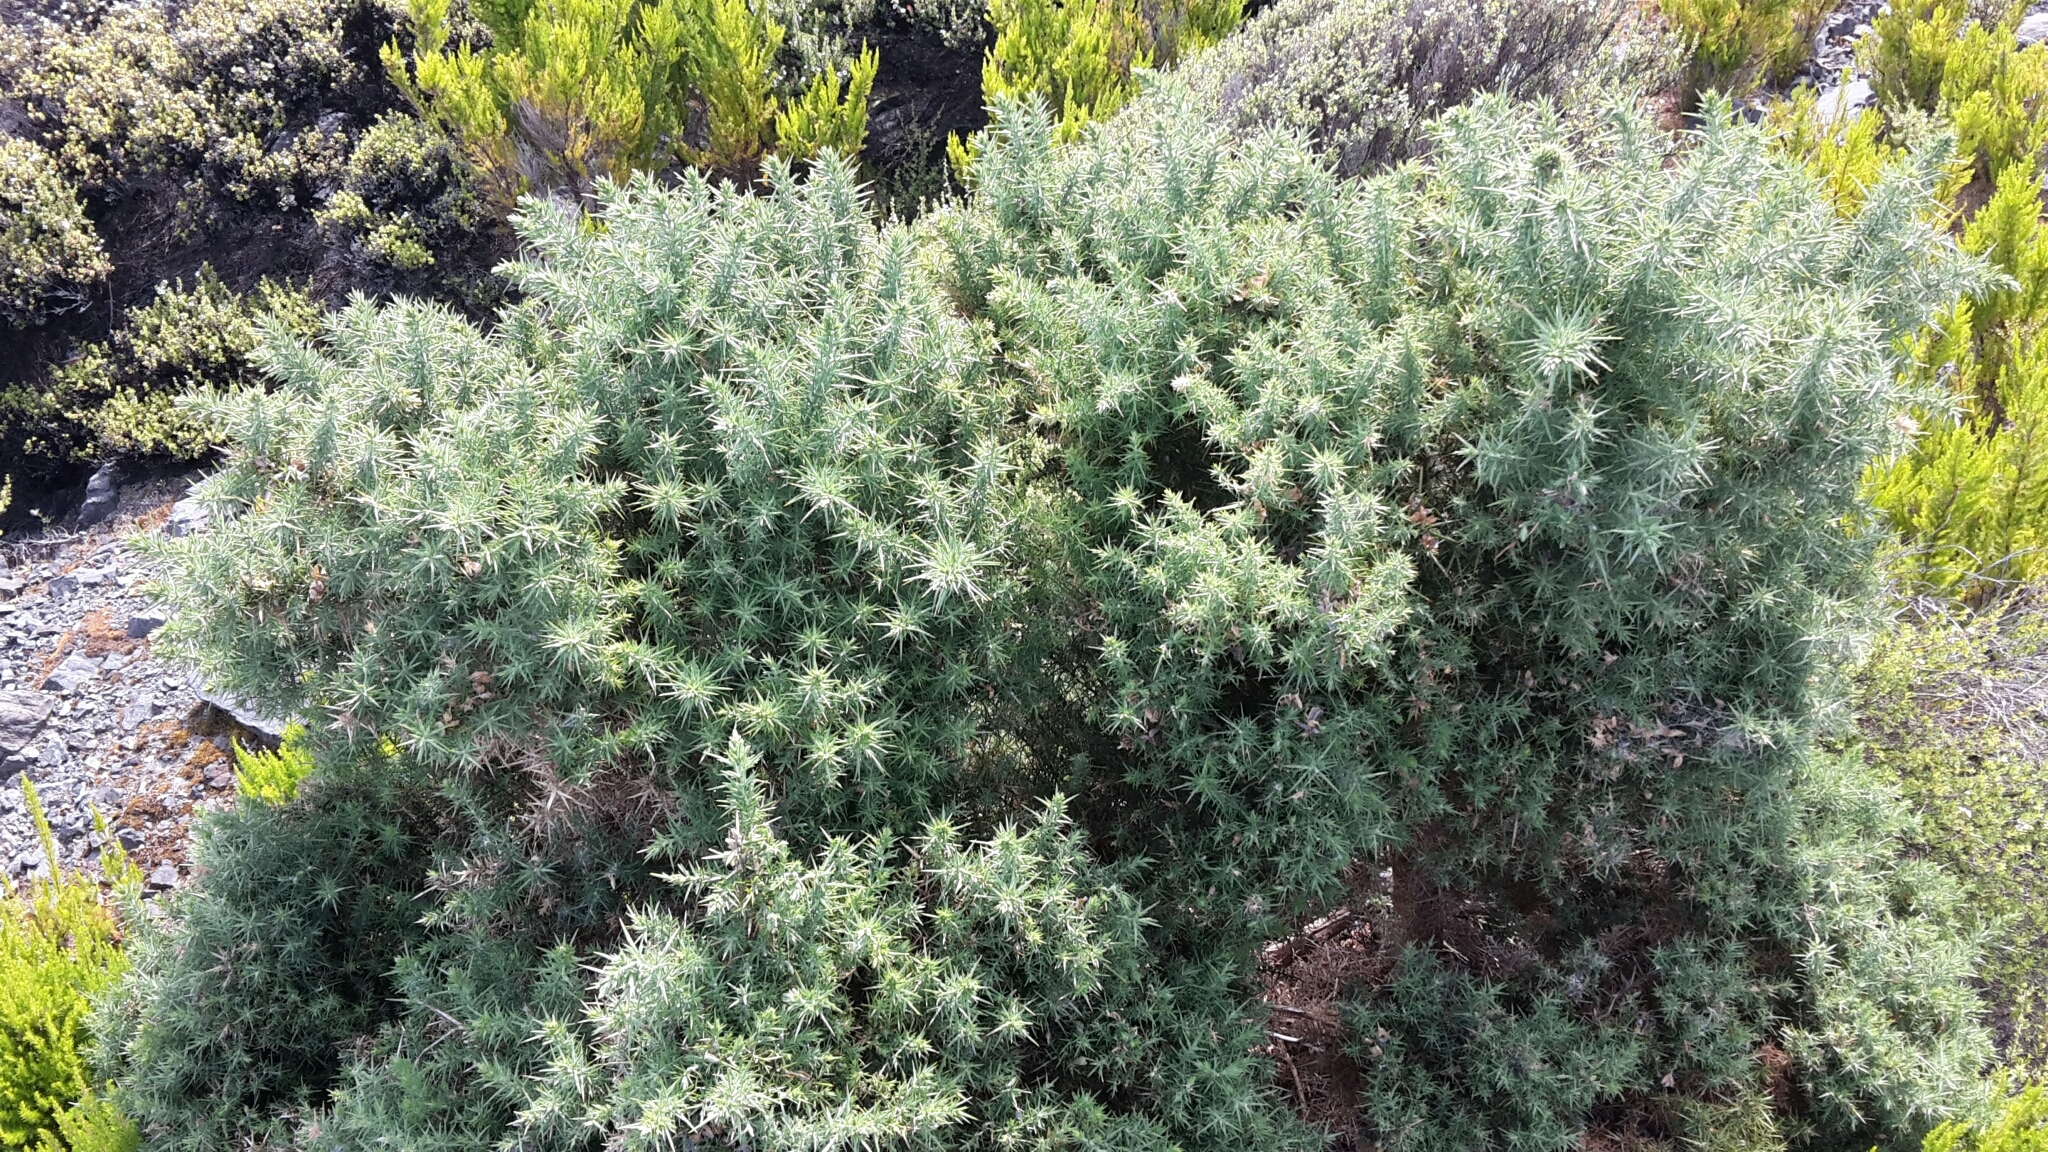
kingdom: Plantae
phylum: Tracheophyta
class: Magnoliopsida
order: Fabales
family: Fabaceae
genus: Ulex
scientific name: Ulex europaeus
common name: Common gorse
